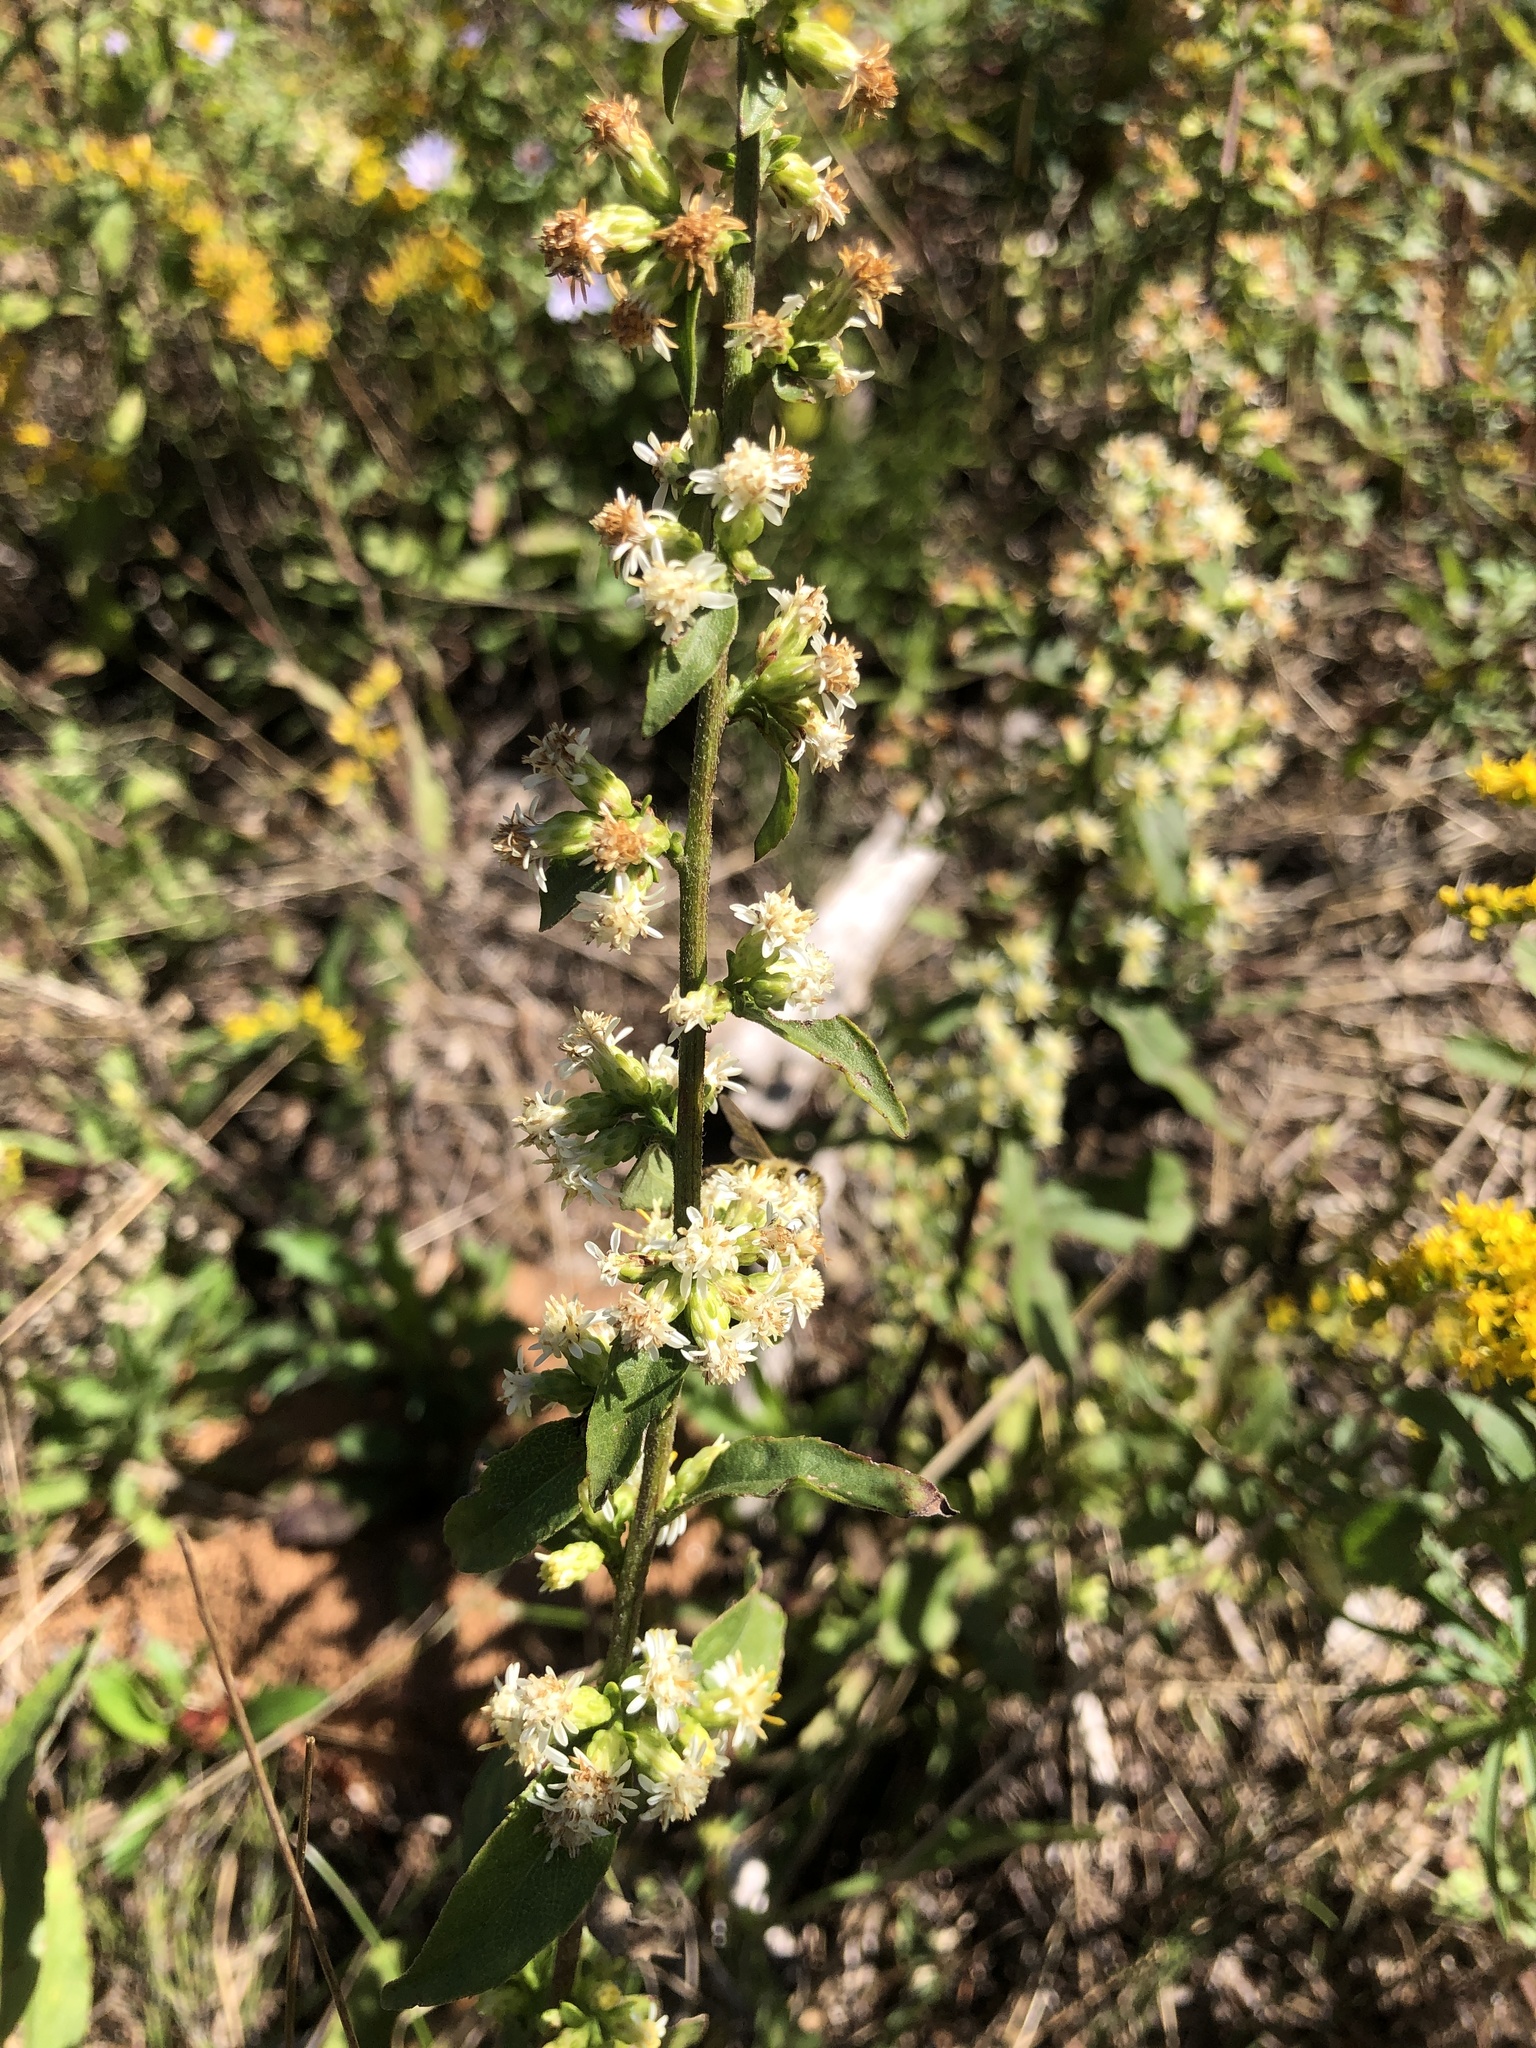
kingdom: Plantae
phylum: Tracheophyta
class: Magnoliopsida
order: Asterales
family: Asteraceae
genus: Solidago
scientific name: Solidago bicolor
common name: Silverrod
